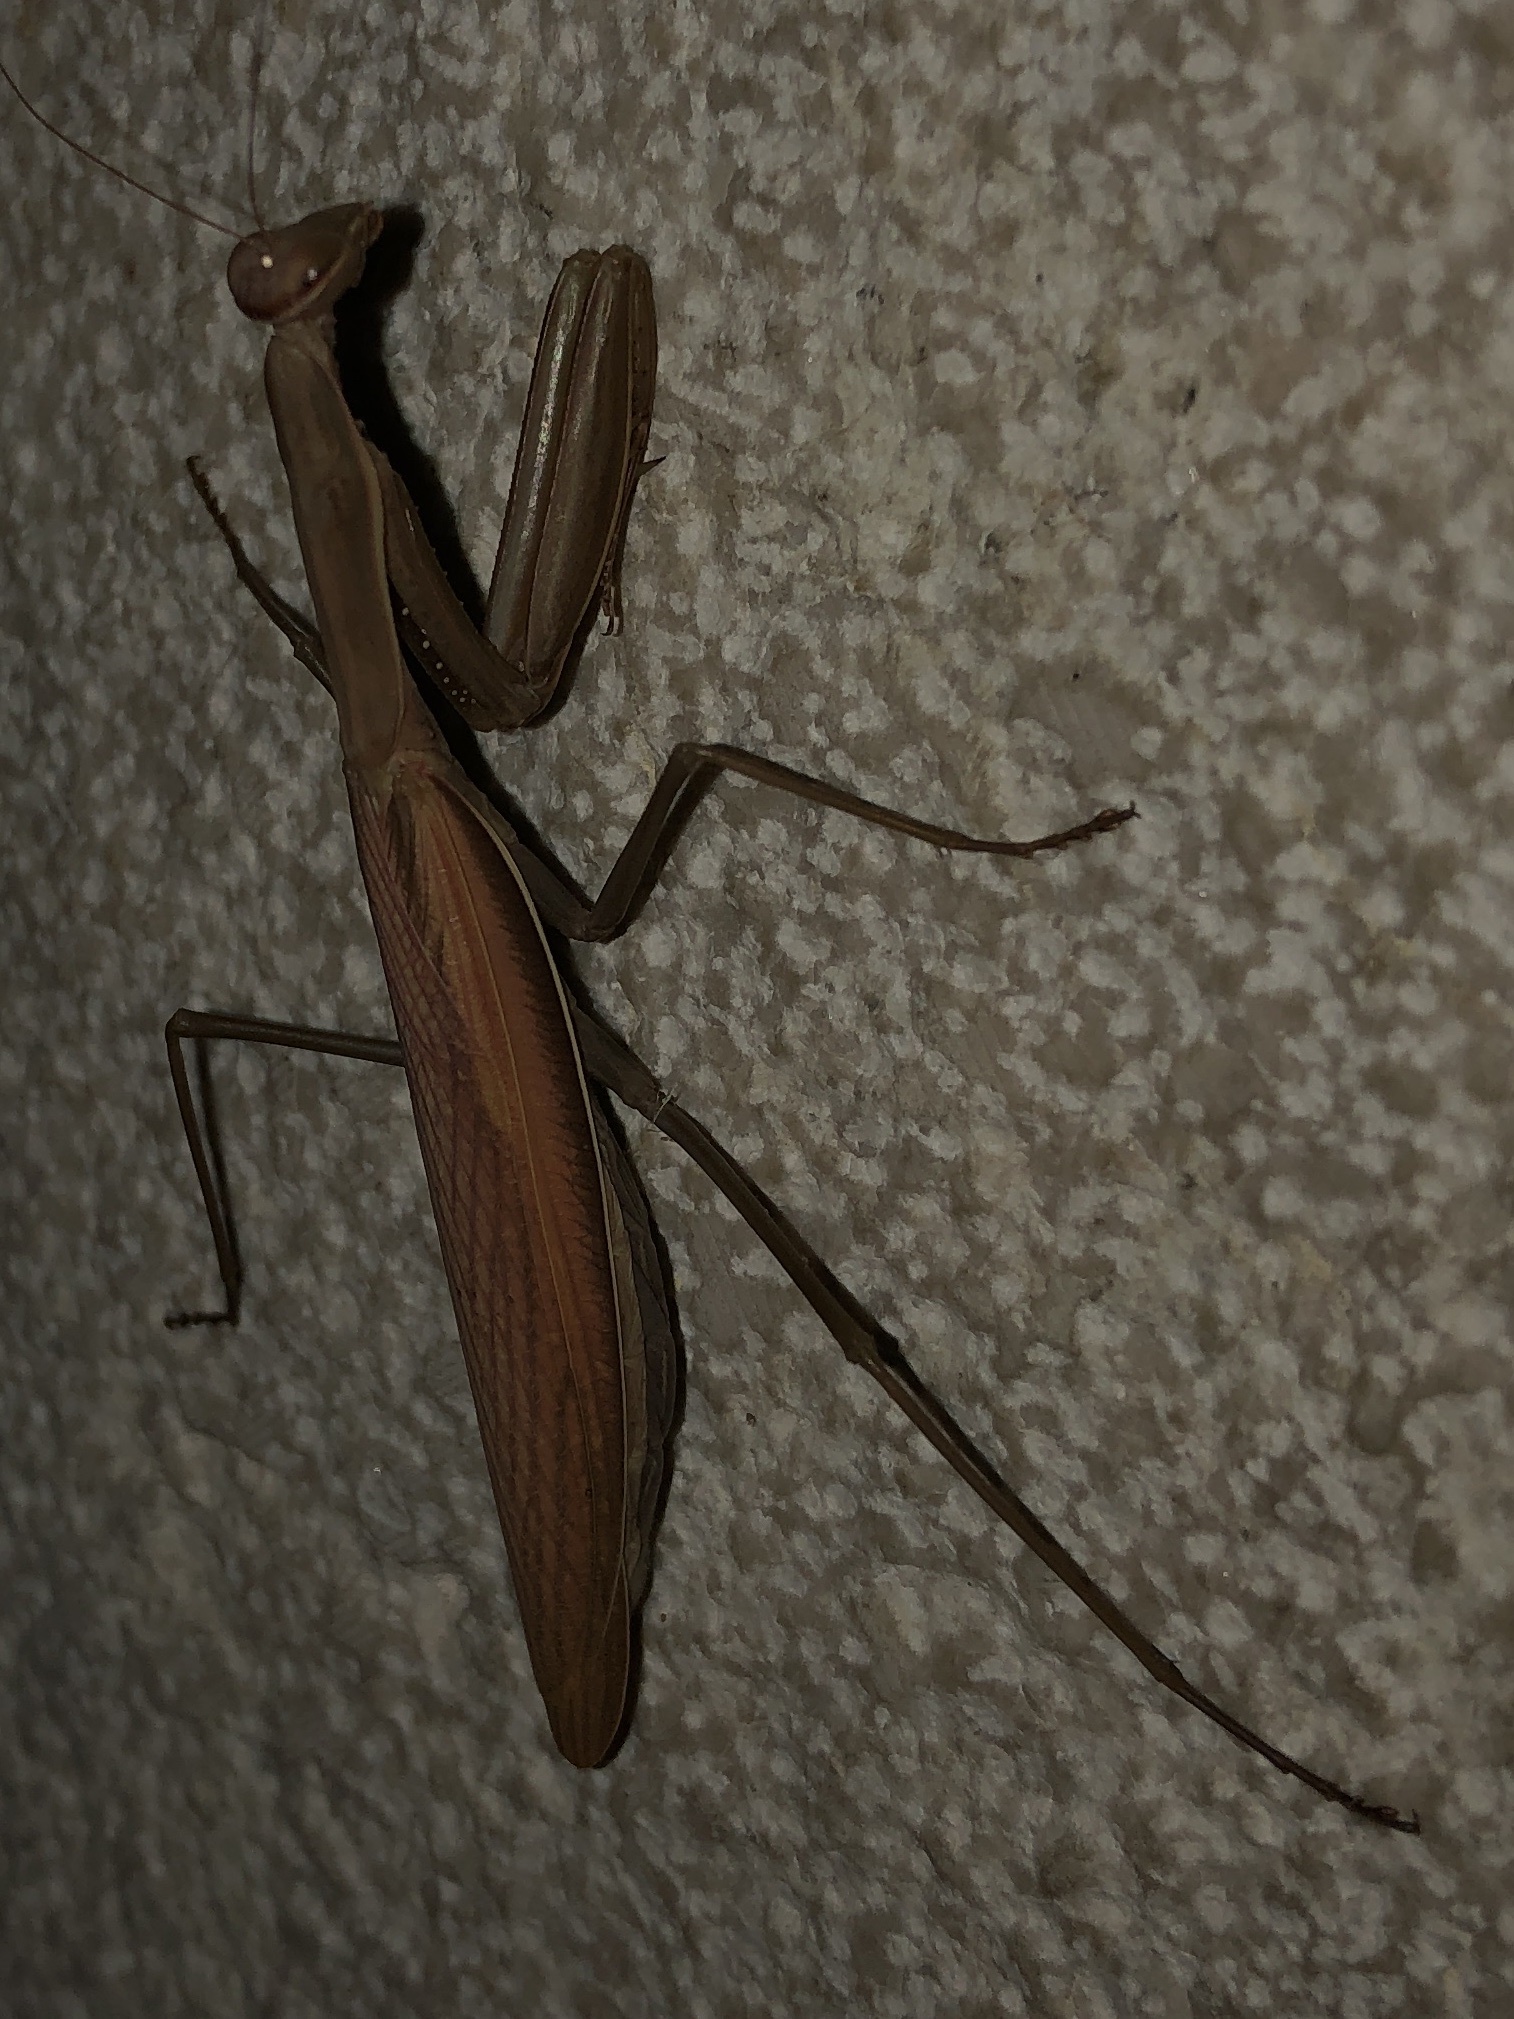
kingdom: Animalia
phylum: Arthropoda
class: Insecta
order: Mantodea
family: Mantidae
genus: Mantis
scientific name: Mantis religiosa
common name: Praying mantis
